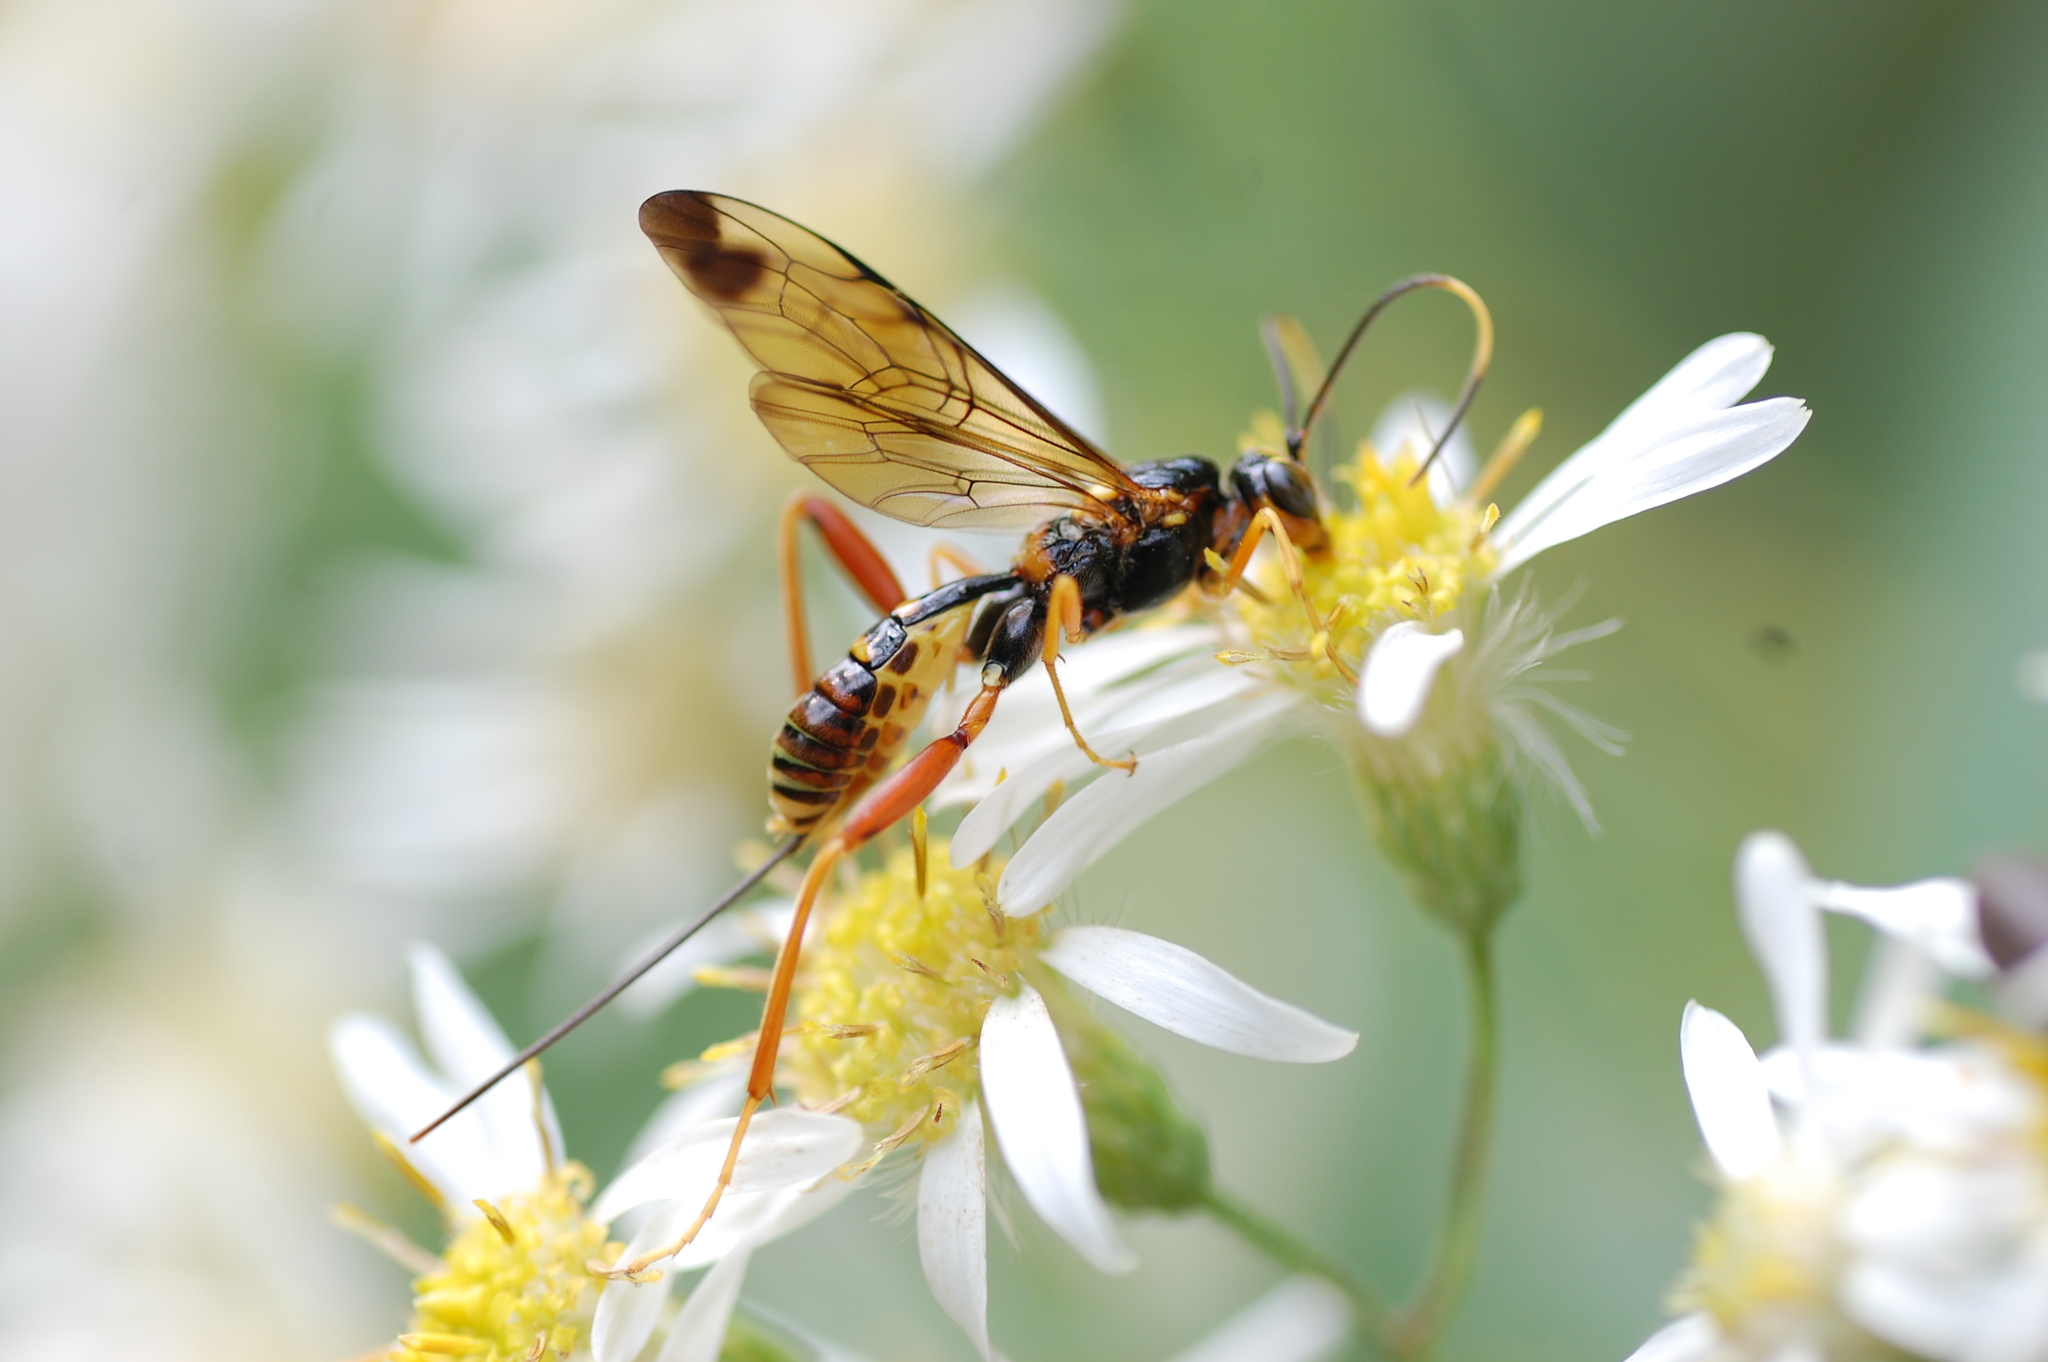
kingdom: Animalia
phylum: Arthropoda
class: Insecta
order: Hymenoptera
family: Ichneumonidae
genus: Spilopteron
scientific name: Spilopteron vicinum
